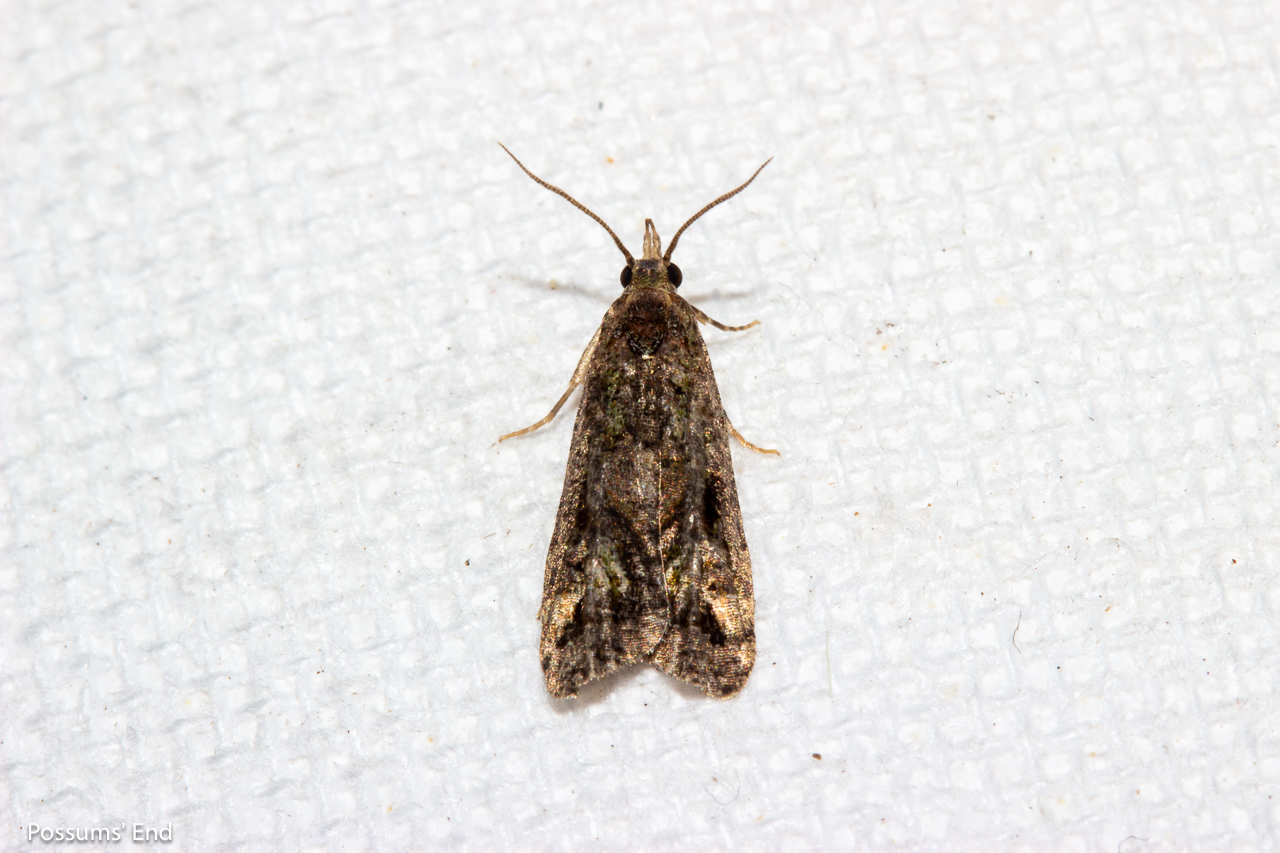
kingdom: Animalia
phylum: Arthropoda
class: Insecta
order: Lepidoptera
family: Copromorphidae
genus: Phycomorpha
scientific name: Phycomorpha metachrysa
